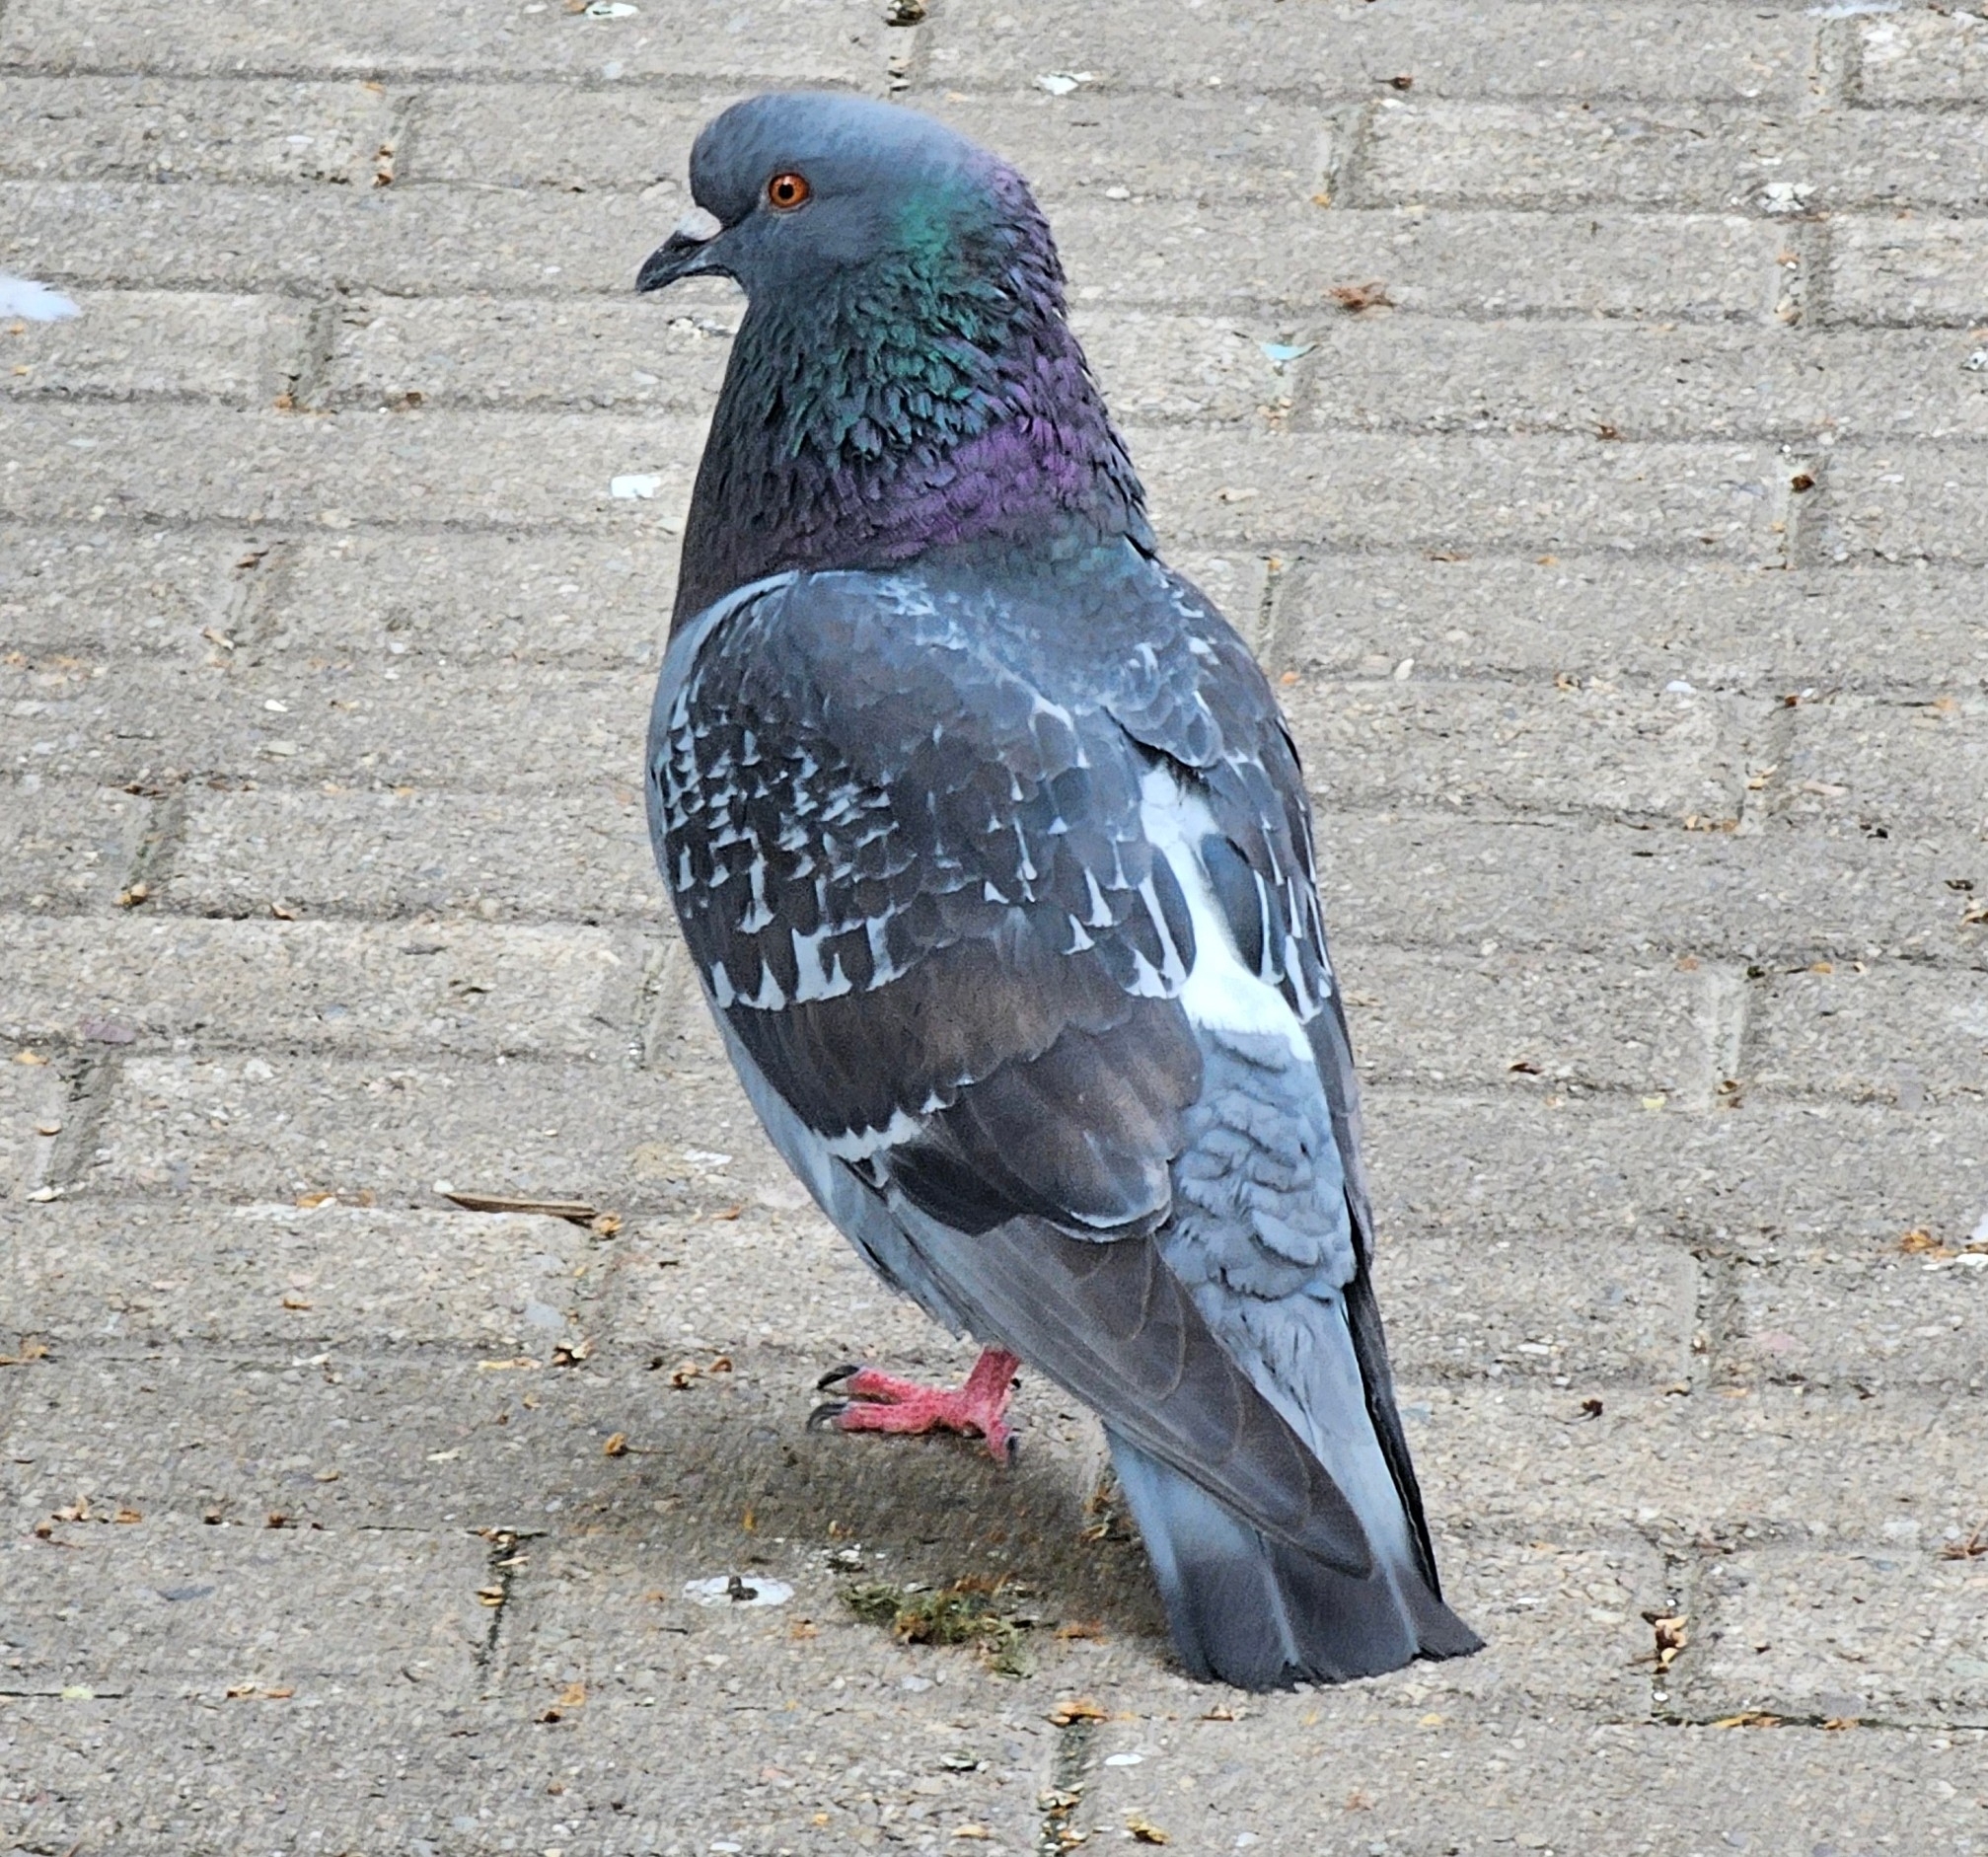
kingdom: Animalia
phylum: Chordata
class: Aves
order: Columbiformes
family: Columbidae
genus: Columba
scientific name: Columba livia
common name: Rock pigeon
